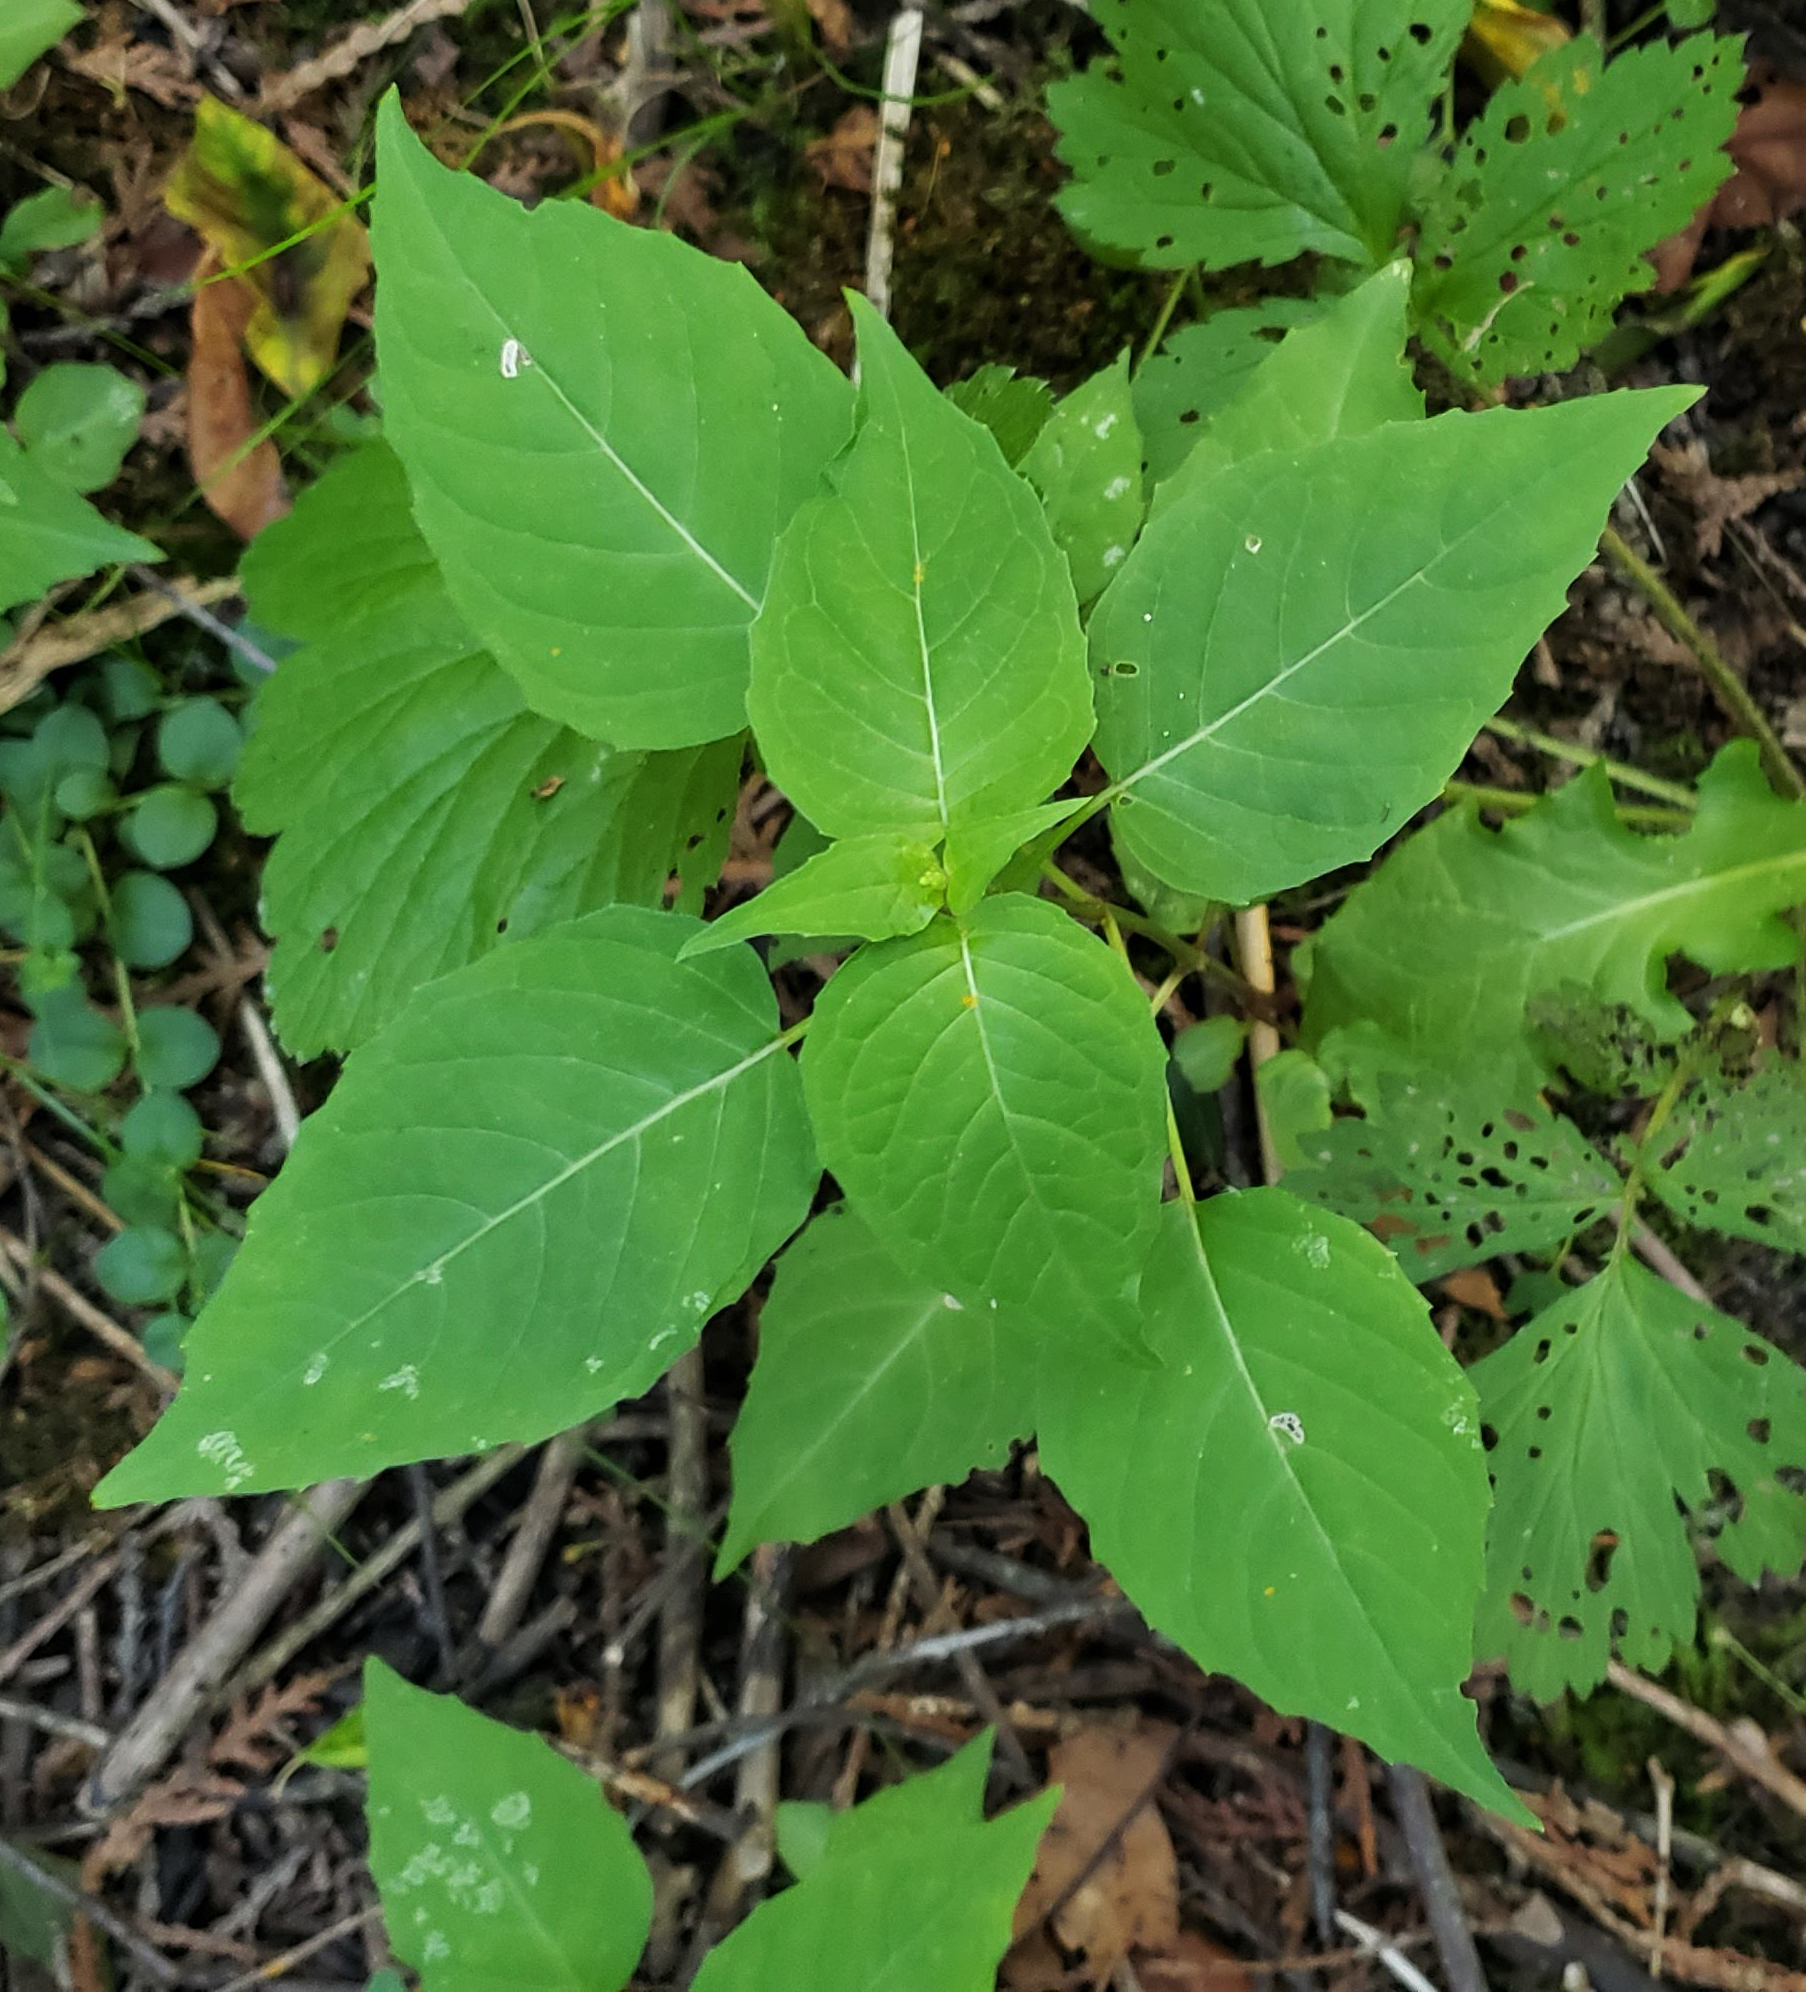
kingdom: Plantae
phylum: Tracheophyta
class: Magnoliopsida
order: Myrtales
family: Onagraceae
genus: Circaea
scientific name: Circaea canadensis
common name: Broad-leaved enchanter's nightshade
